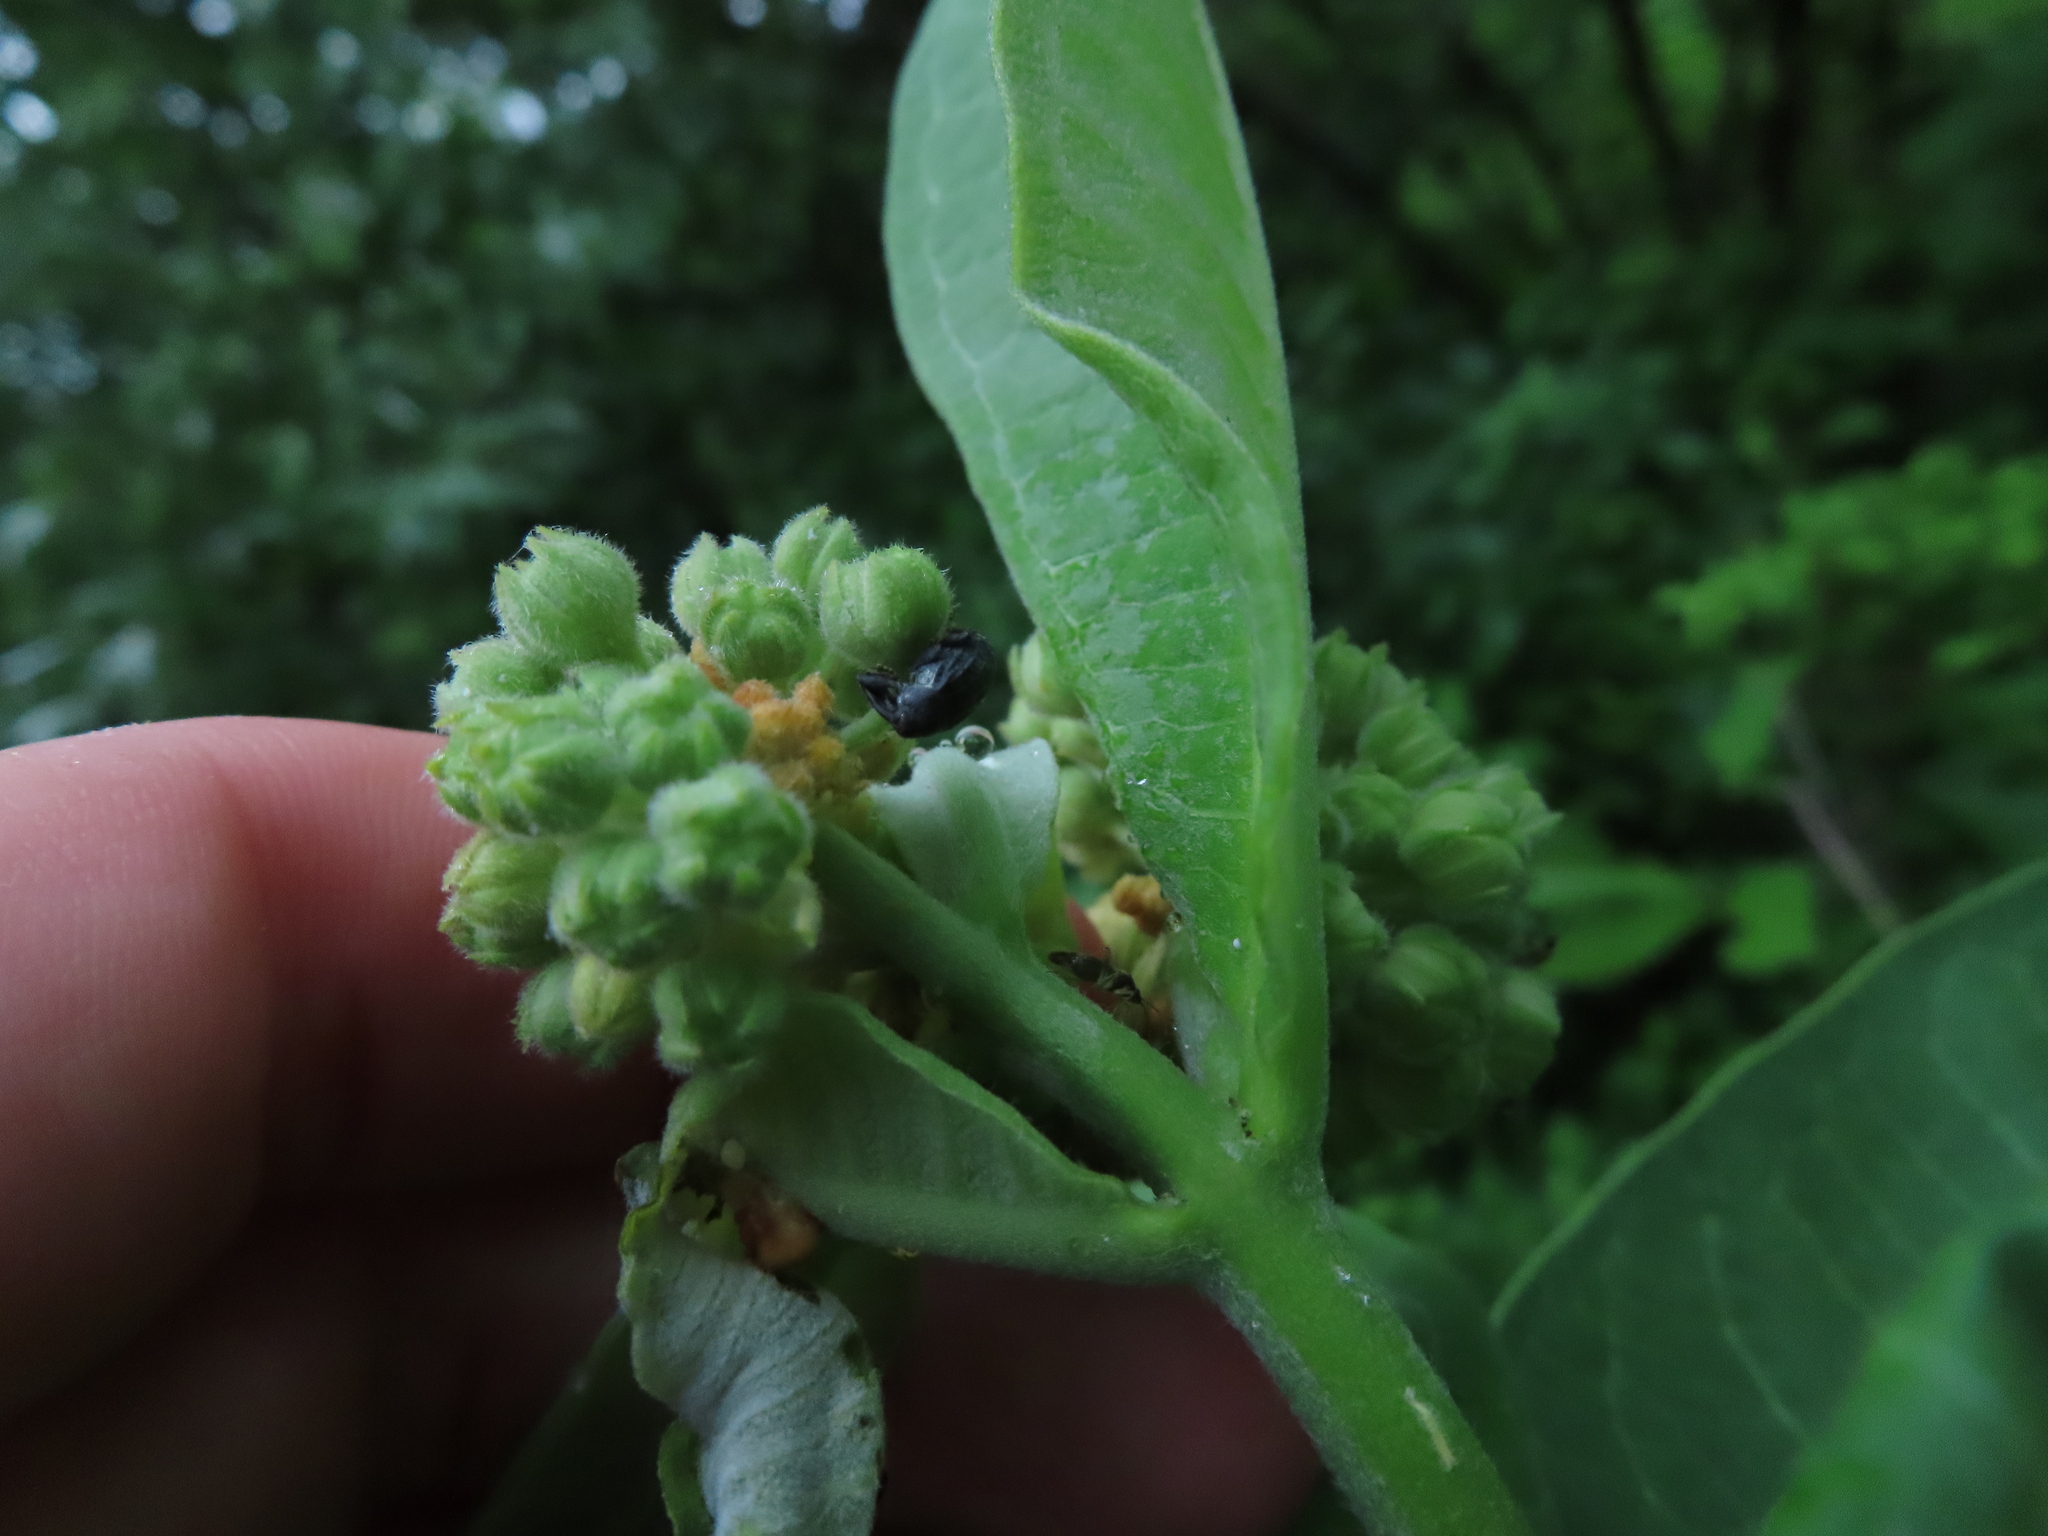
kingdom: Animalia
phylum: Arthropoda
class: Insecta
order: Coleoptera
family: Curculionidae
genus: Rhyssomatus
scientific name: Rhyssomatus lineaticollis
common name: Milkweed stem weevil
